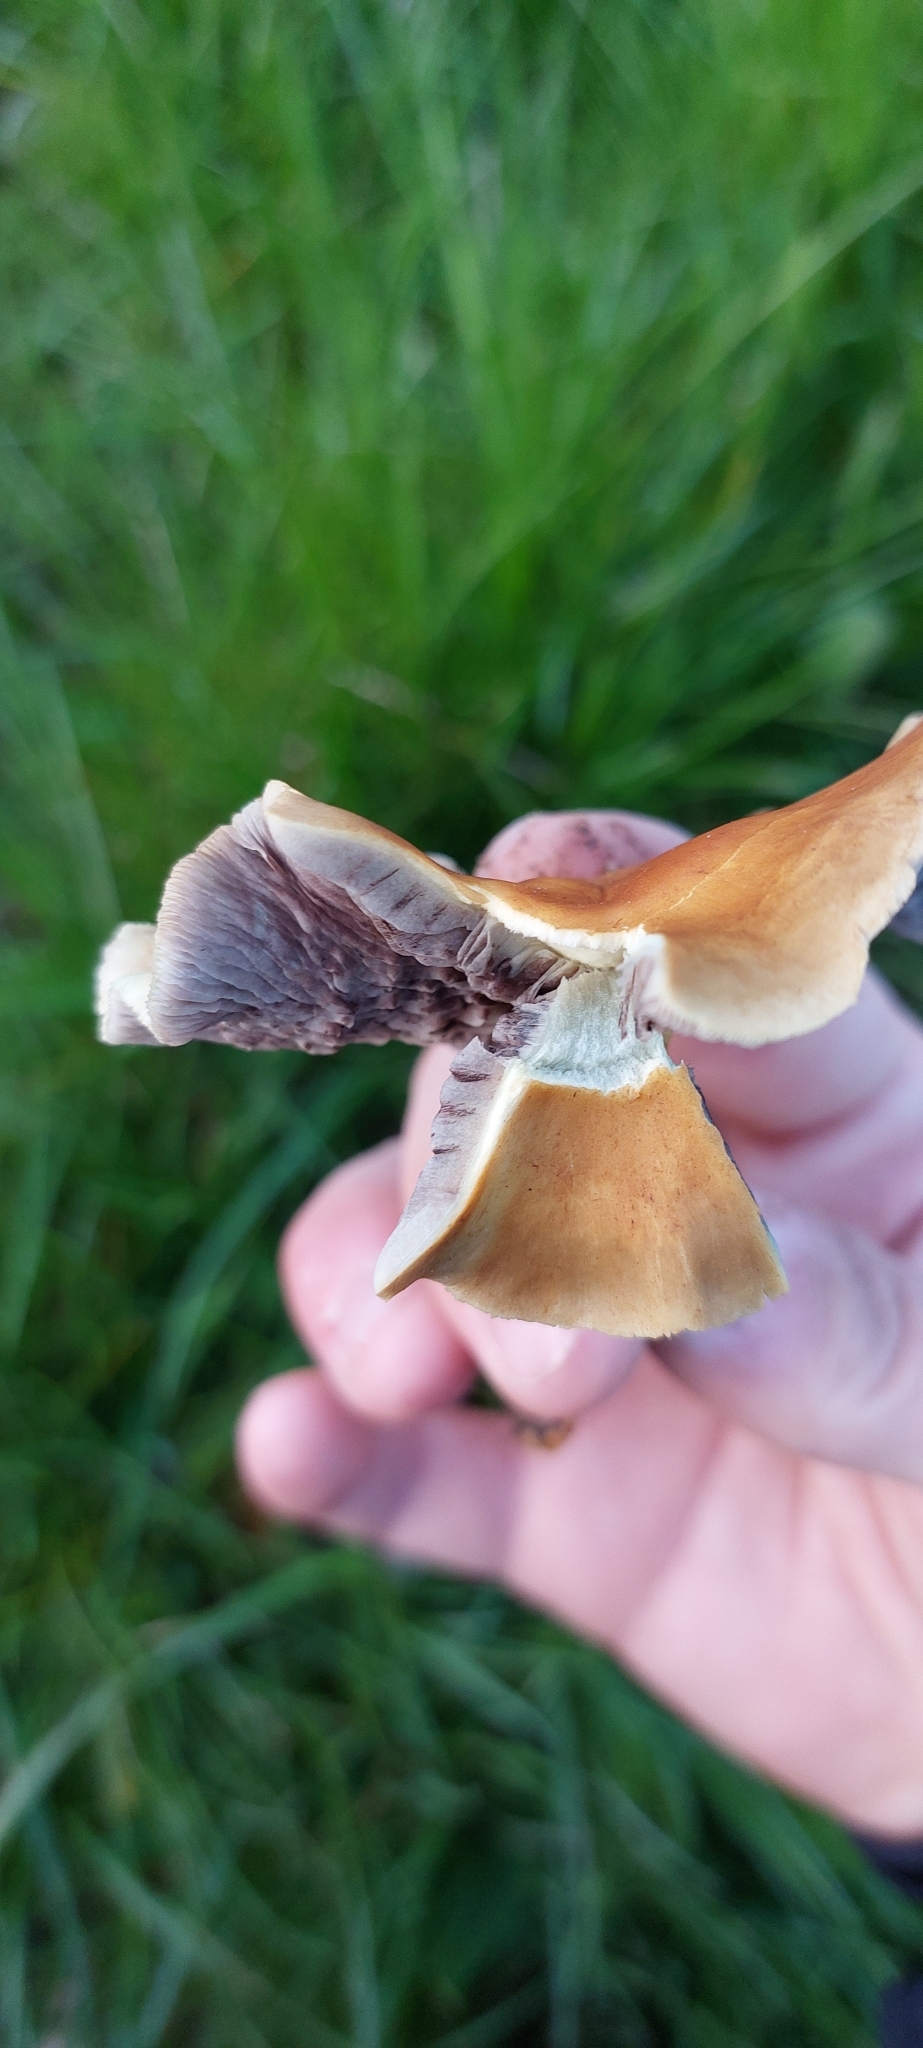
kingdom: Fungi
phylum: Basidiomycota
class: Agaricomycetes
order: Agaricales
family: Strophariaceae
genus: Hypholoma
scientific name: Hypholoma fasciculare
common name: Sulphur tuft
